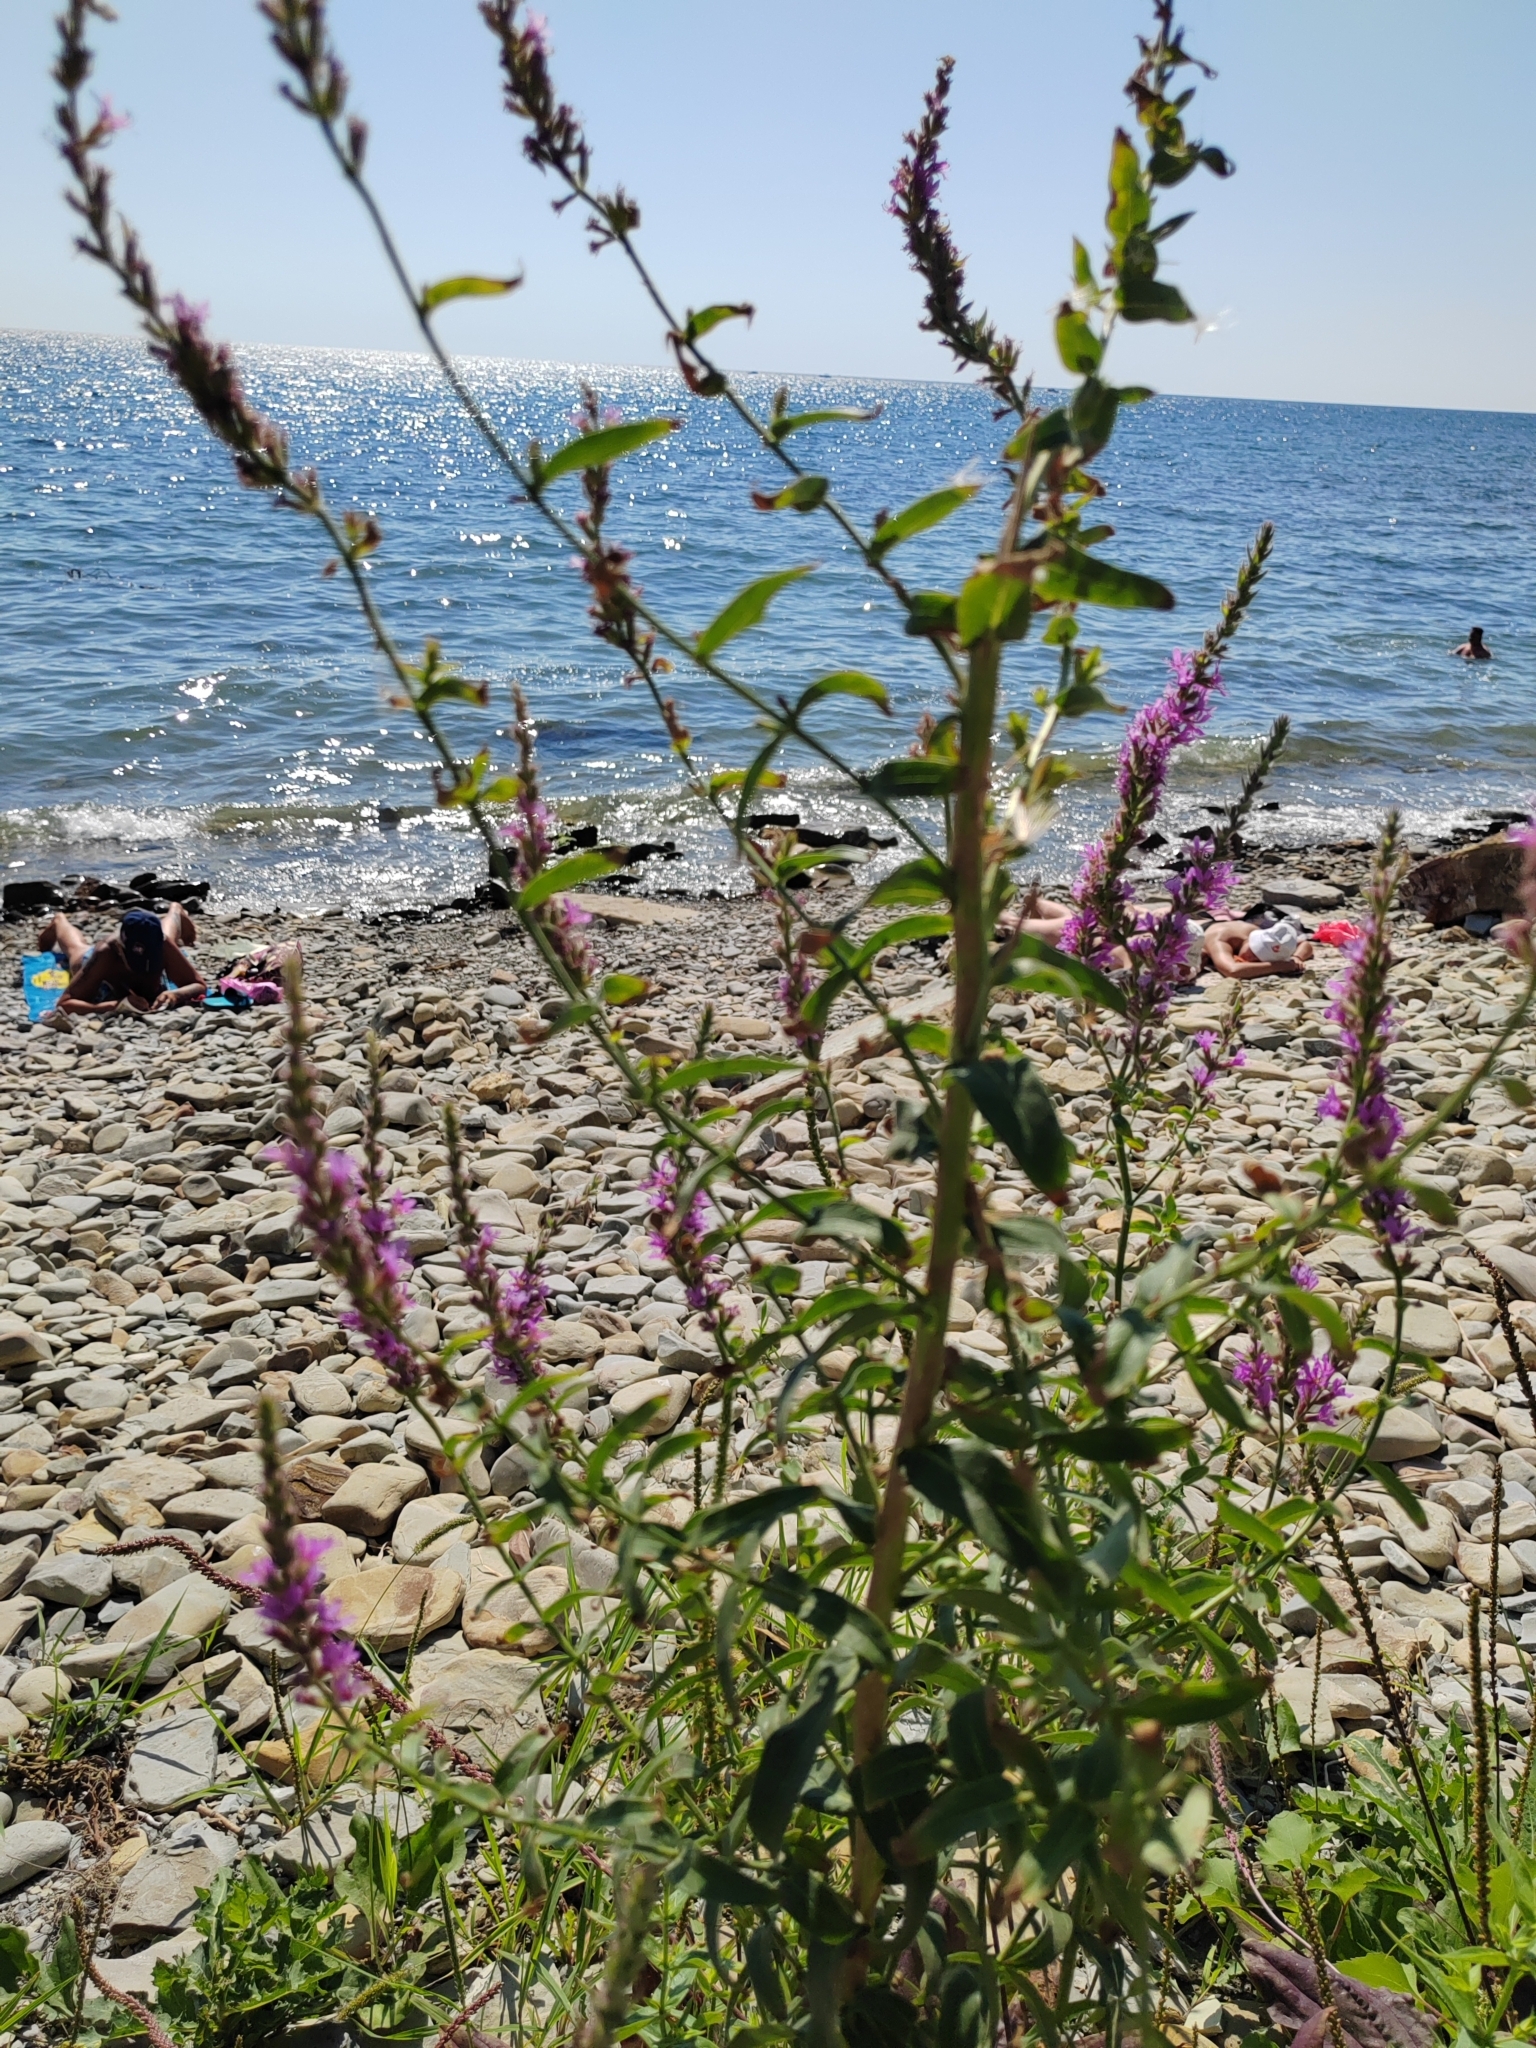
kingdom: Plantae
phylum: Tracheophyta
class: Magnoliopsida
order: Myrtales
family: Lythraceae
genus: Lythrum
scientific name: Lythrum salicaria
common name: Purple loosestrife
